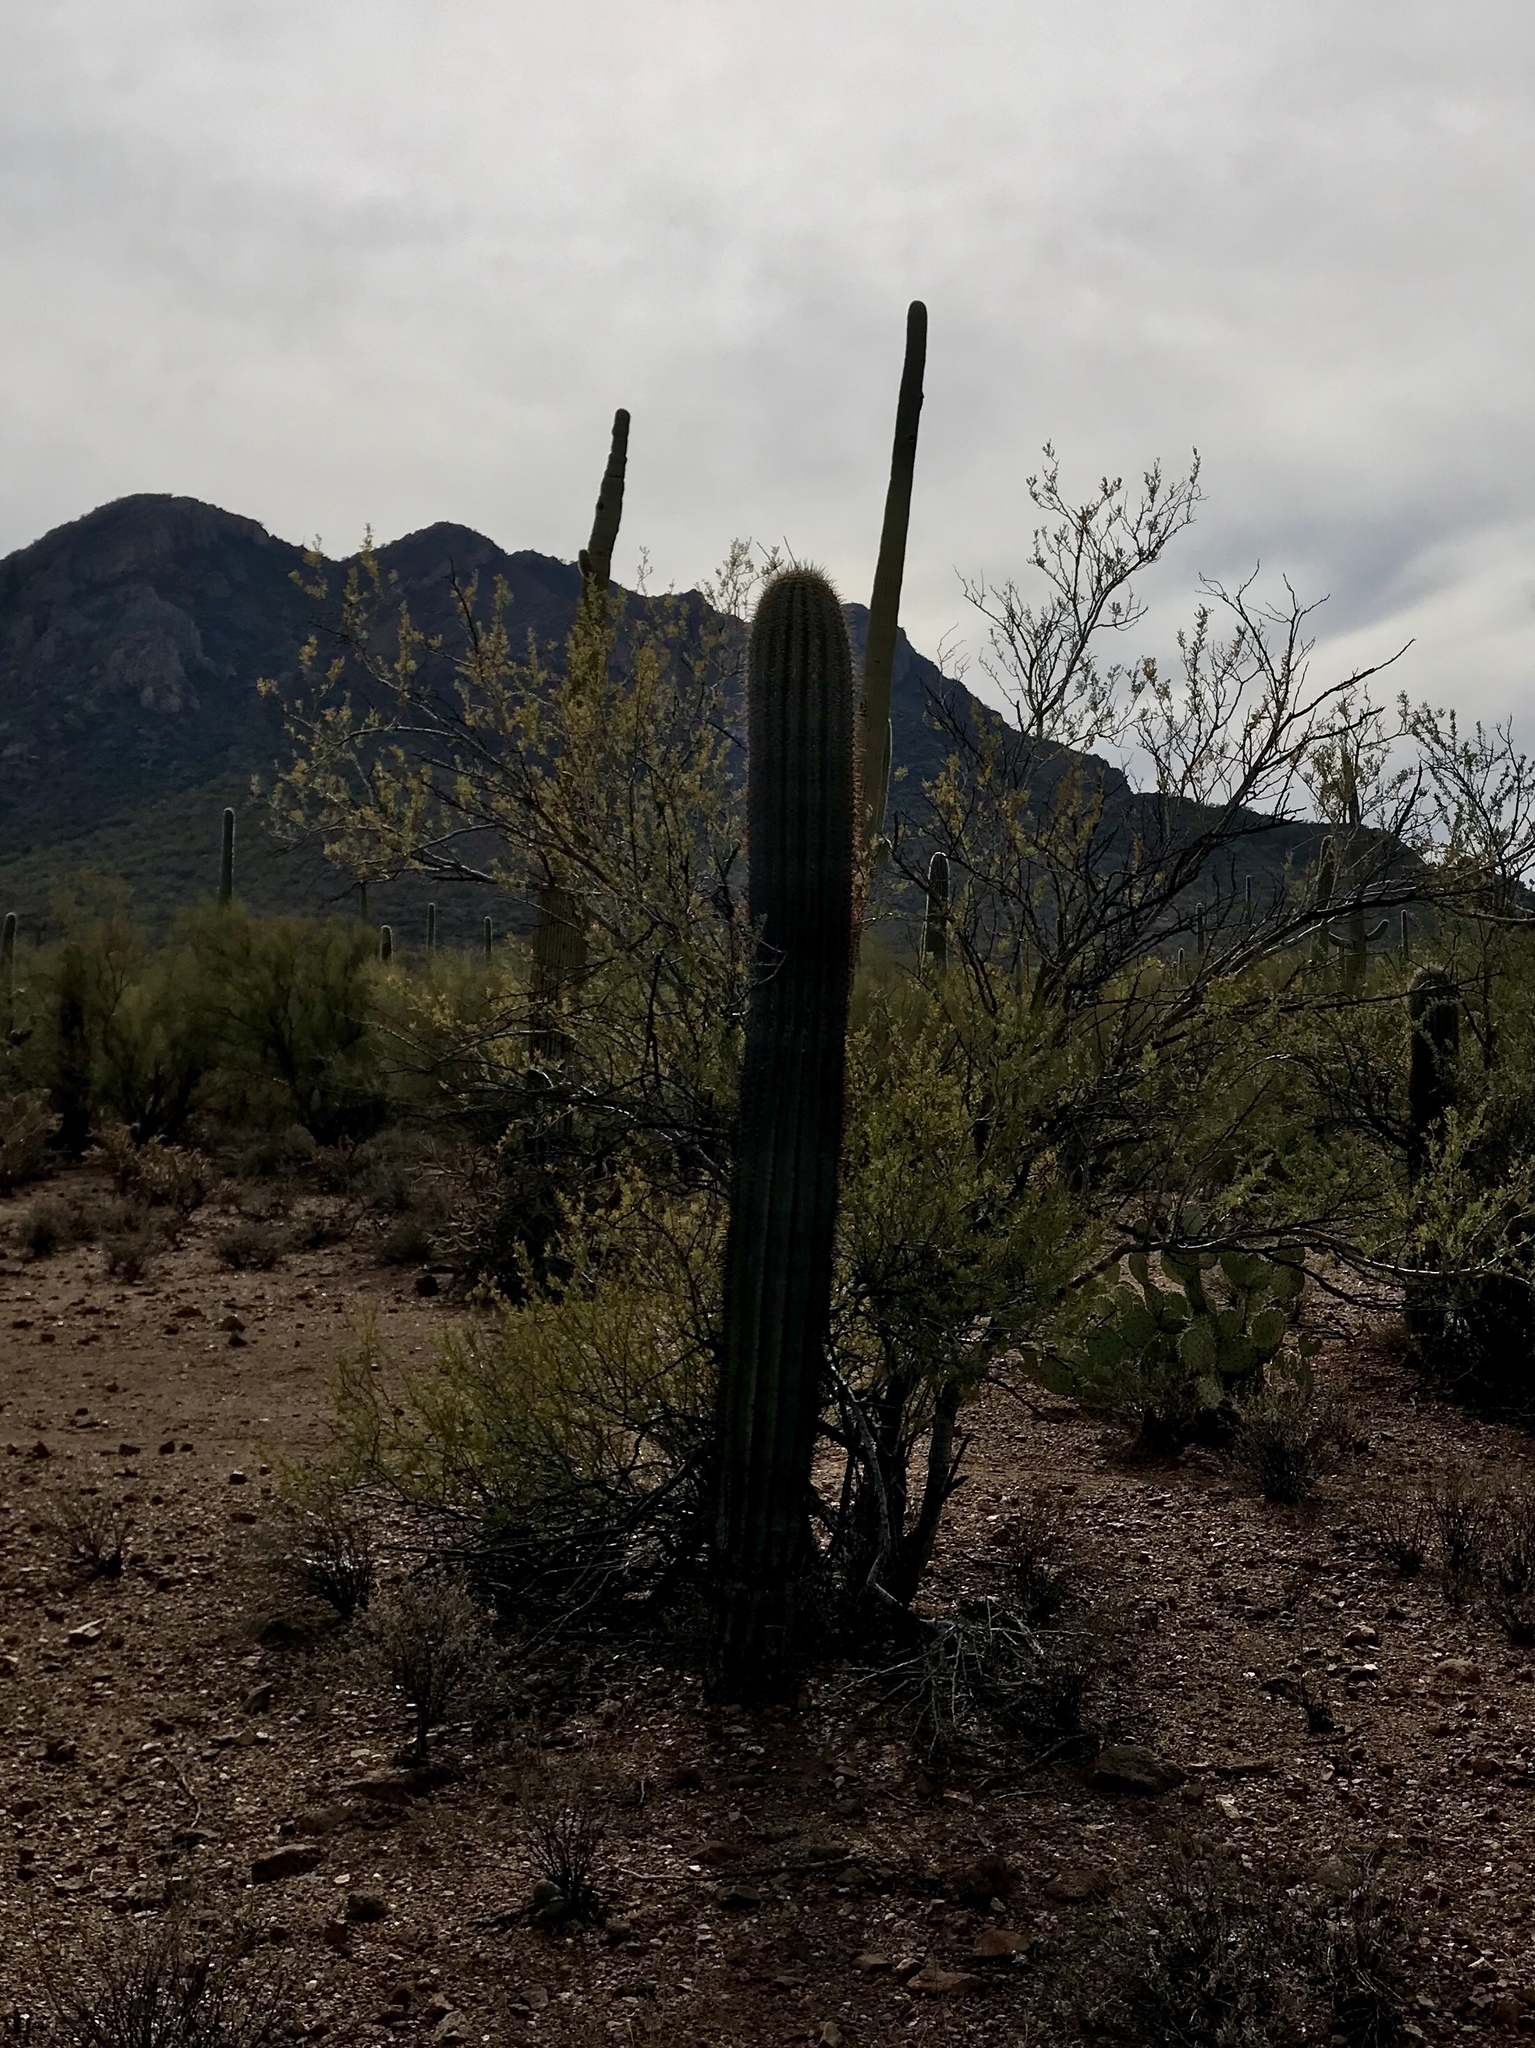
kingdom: Plantae
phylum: Tracheophyta
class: Magnoliopsida
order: Caryophyllales
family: Cactaceae
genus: Carnegiea
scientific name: Carnegiea gigantea
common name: Saguaro
